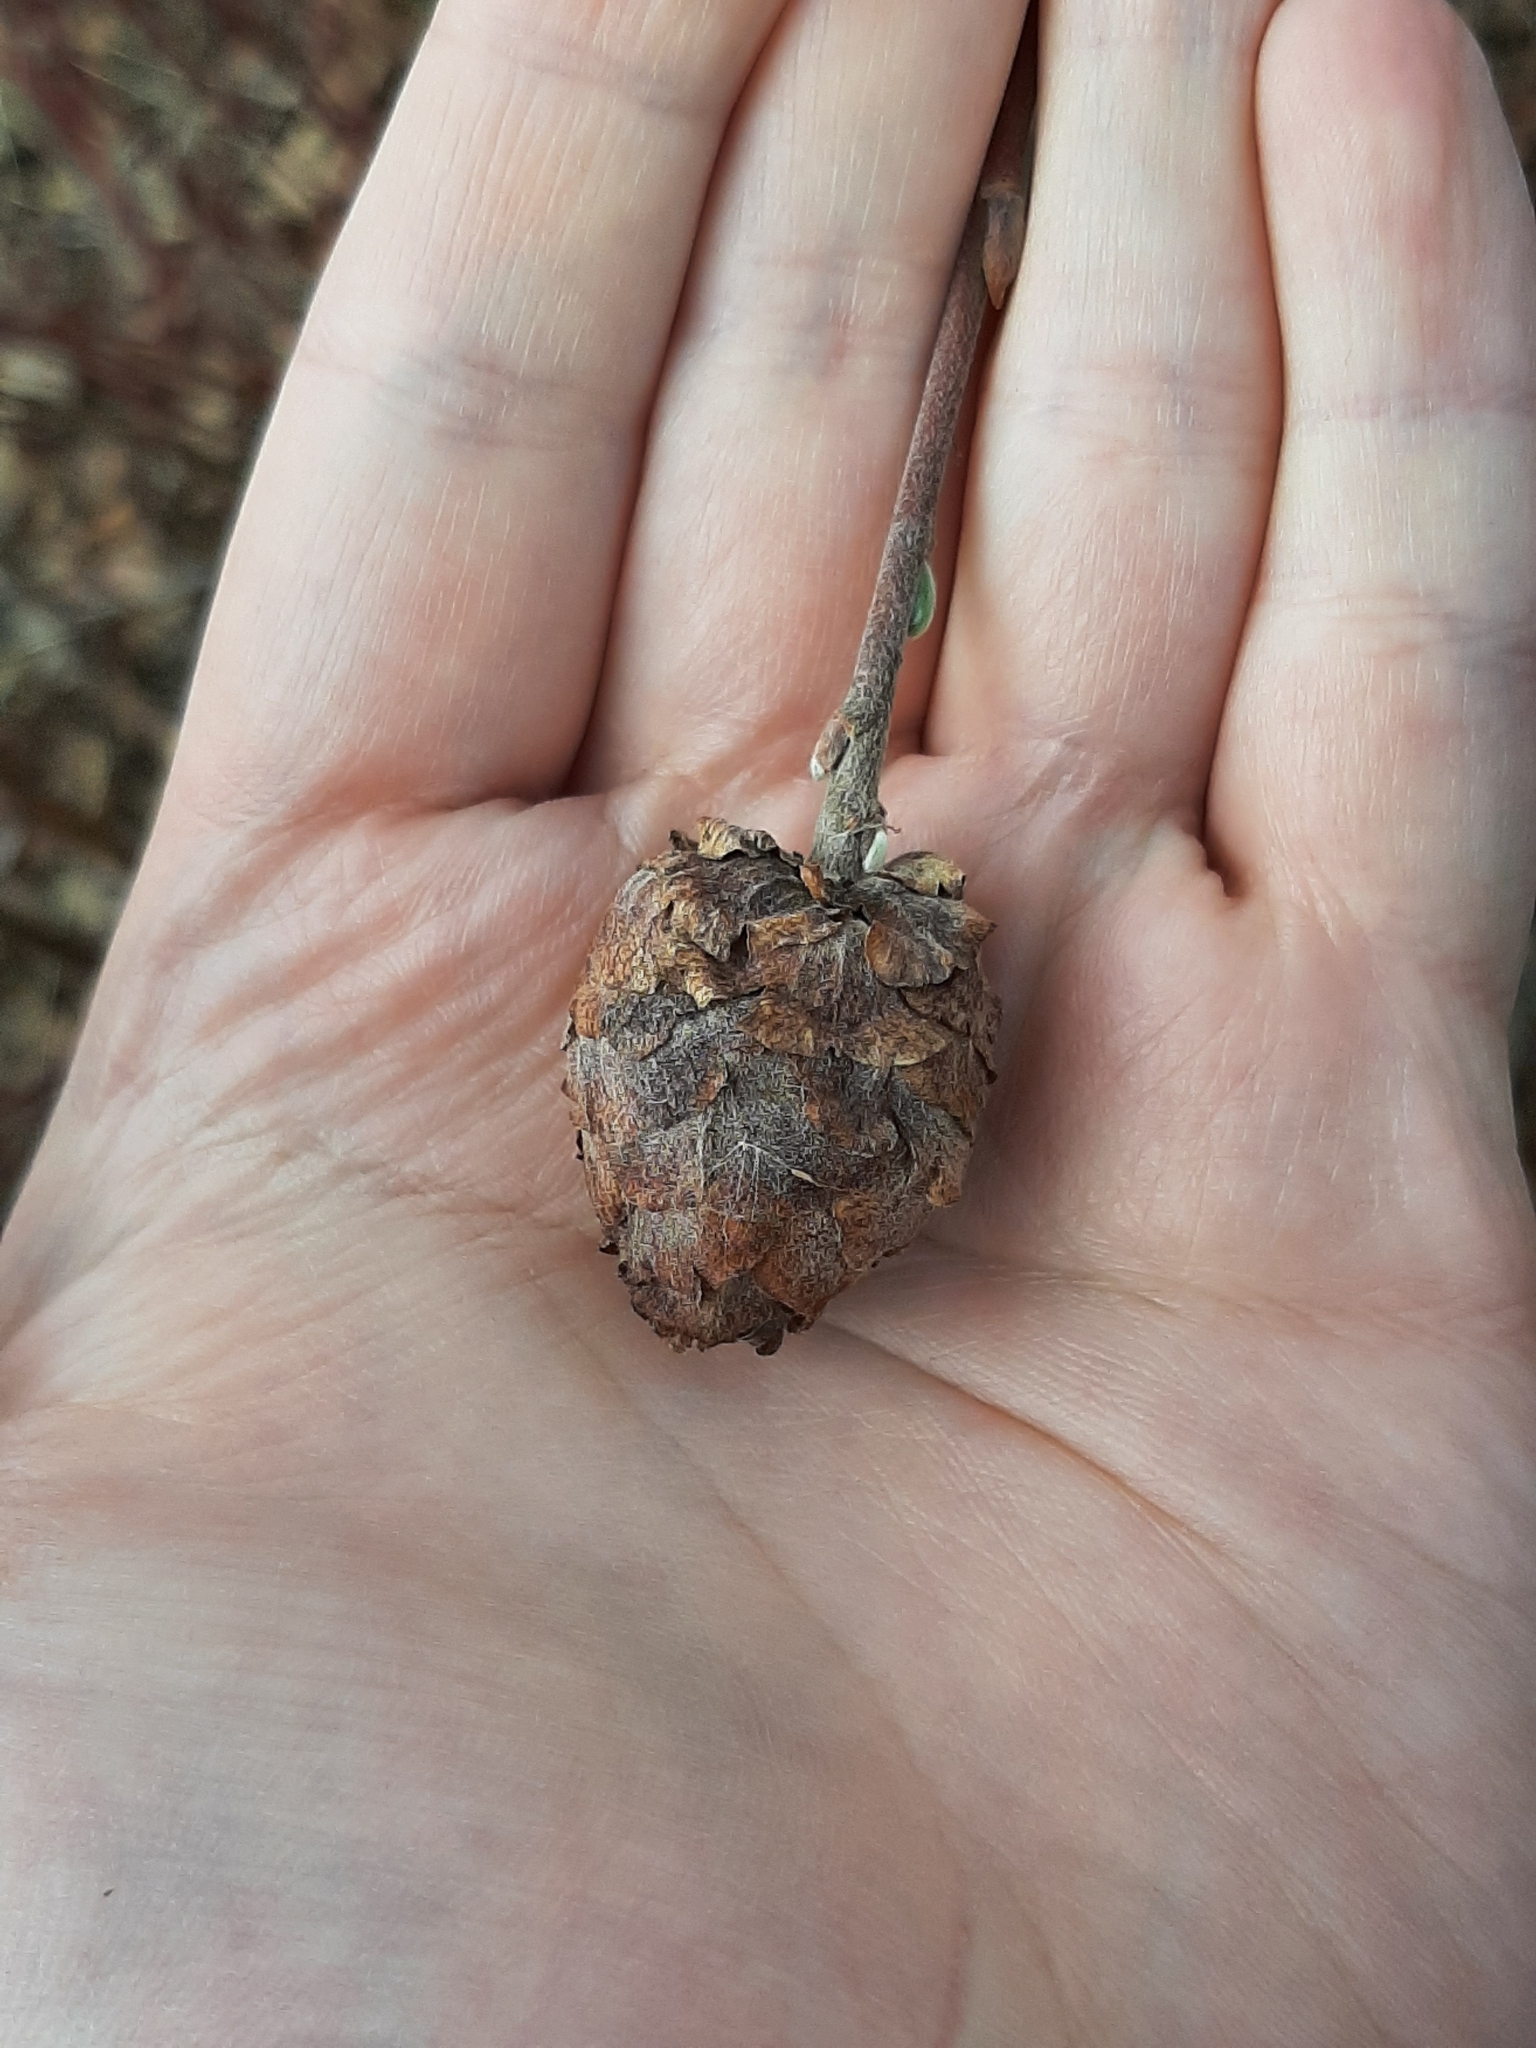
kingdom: Animalia
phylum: Arthropoda
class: Insecta
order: Diptera
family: Cecidomyiidae
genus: Rabdophaga
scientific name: Rabdophaga strobiloides
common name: Willow pinecone gall midge
